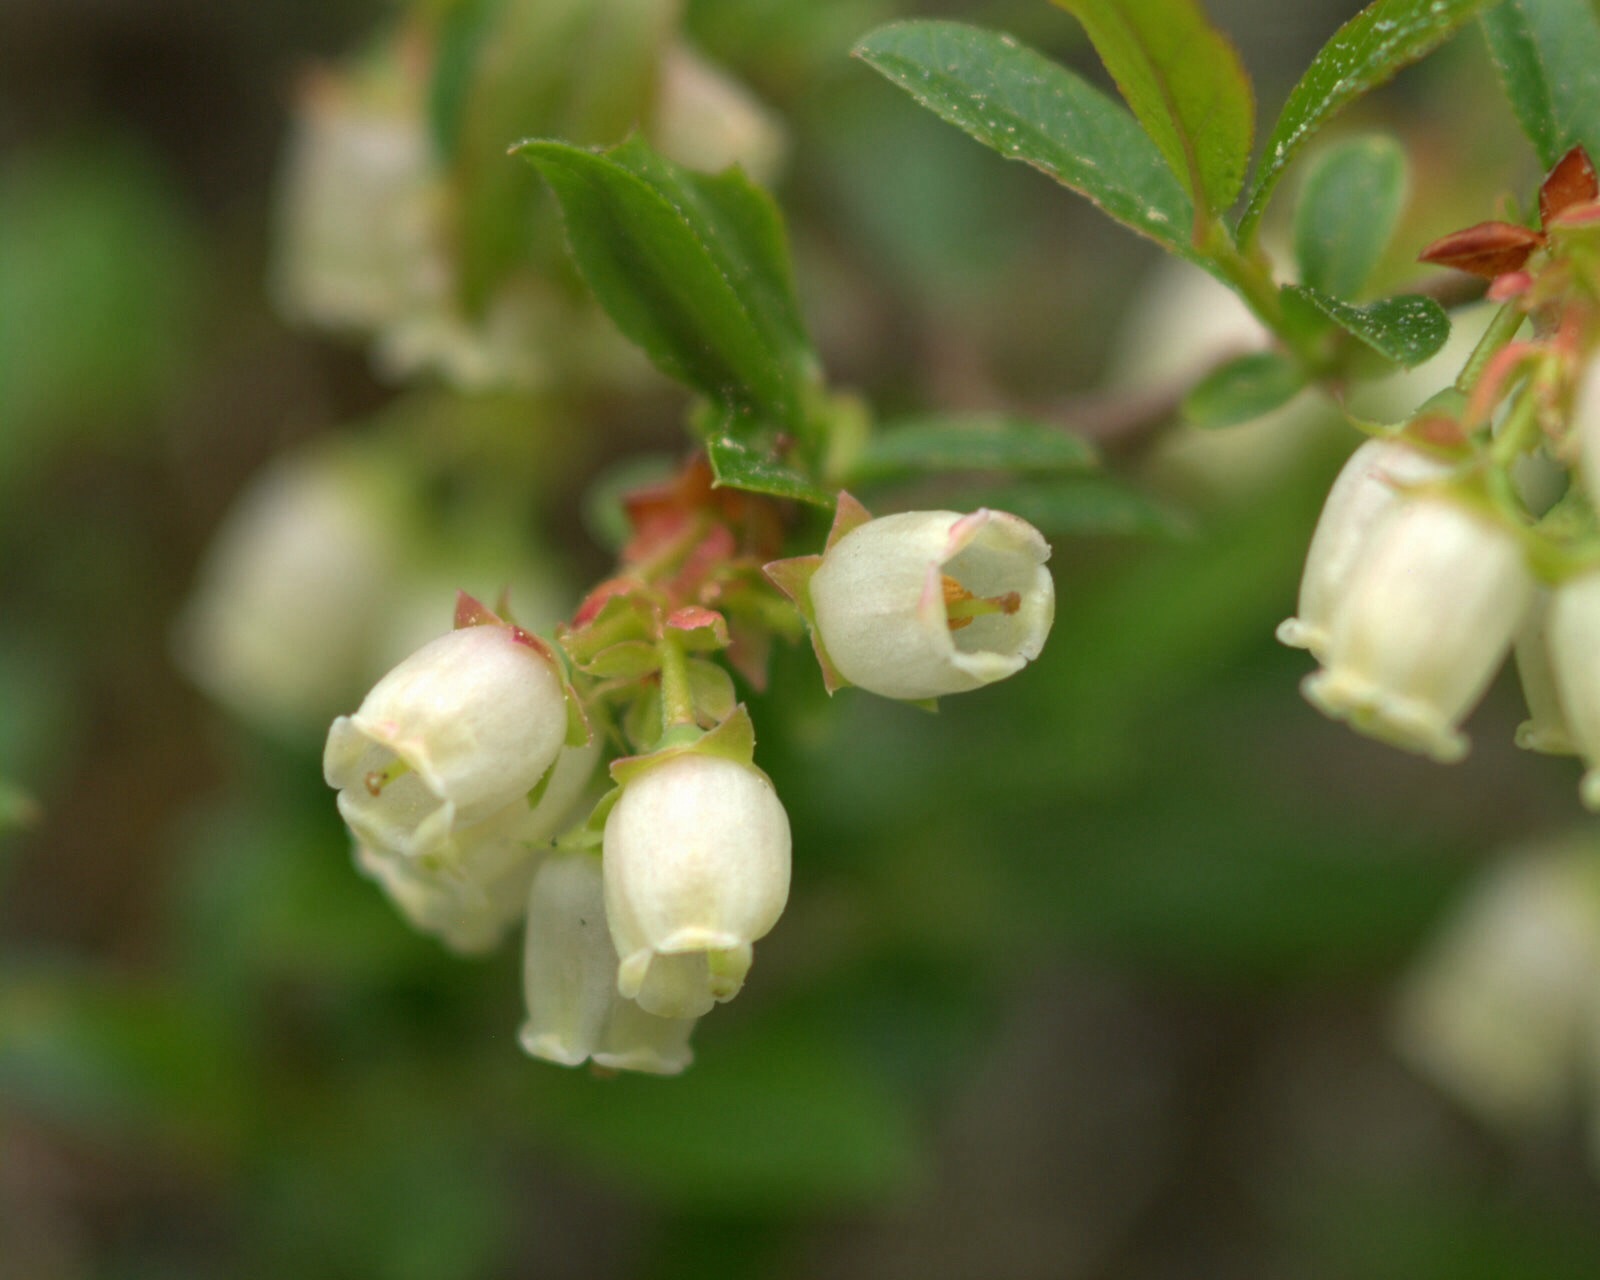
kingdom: Plantae
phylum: Tracheophyta
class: Magnoliopsida
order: Ericales
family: Ericaceae
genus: Vaccinium
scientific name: Vaccinium angustifolium
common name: Early lowbush blueberry
